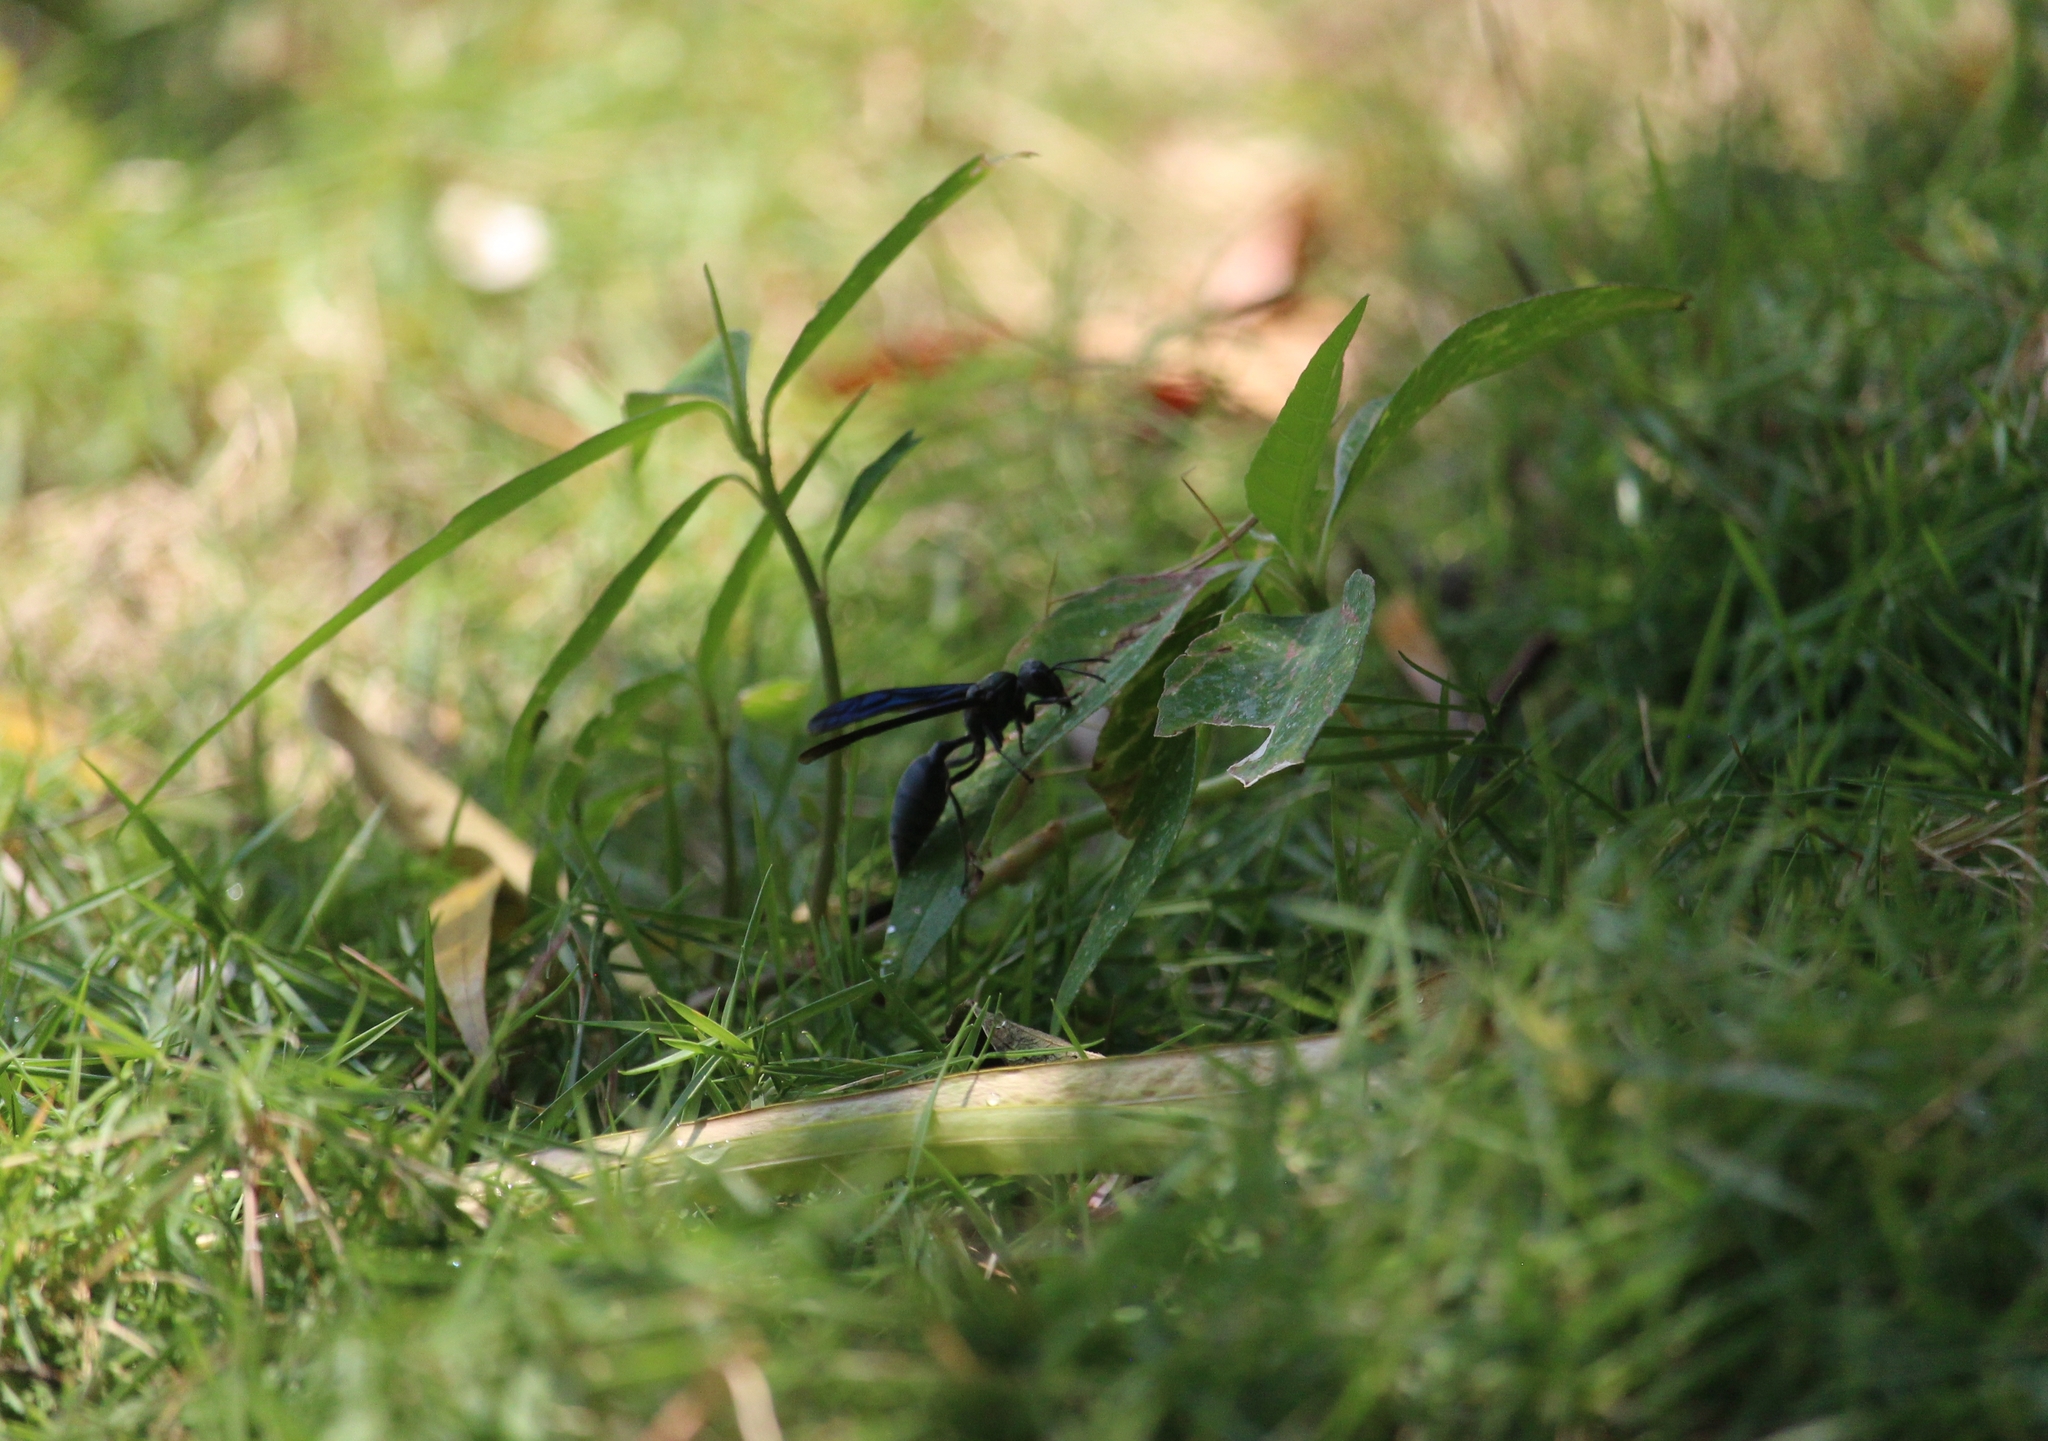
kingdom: Animalia
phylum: Arthropoda
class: Insecta
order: Hymenoptera
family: Vespidae
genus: Synoeca
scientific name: Synoeca septentrionalis
